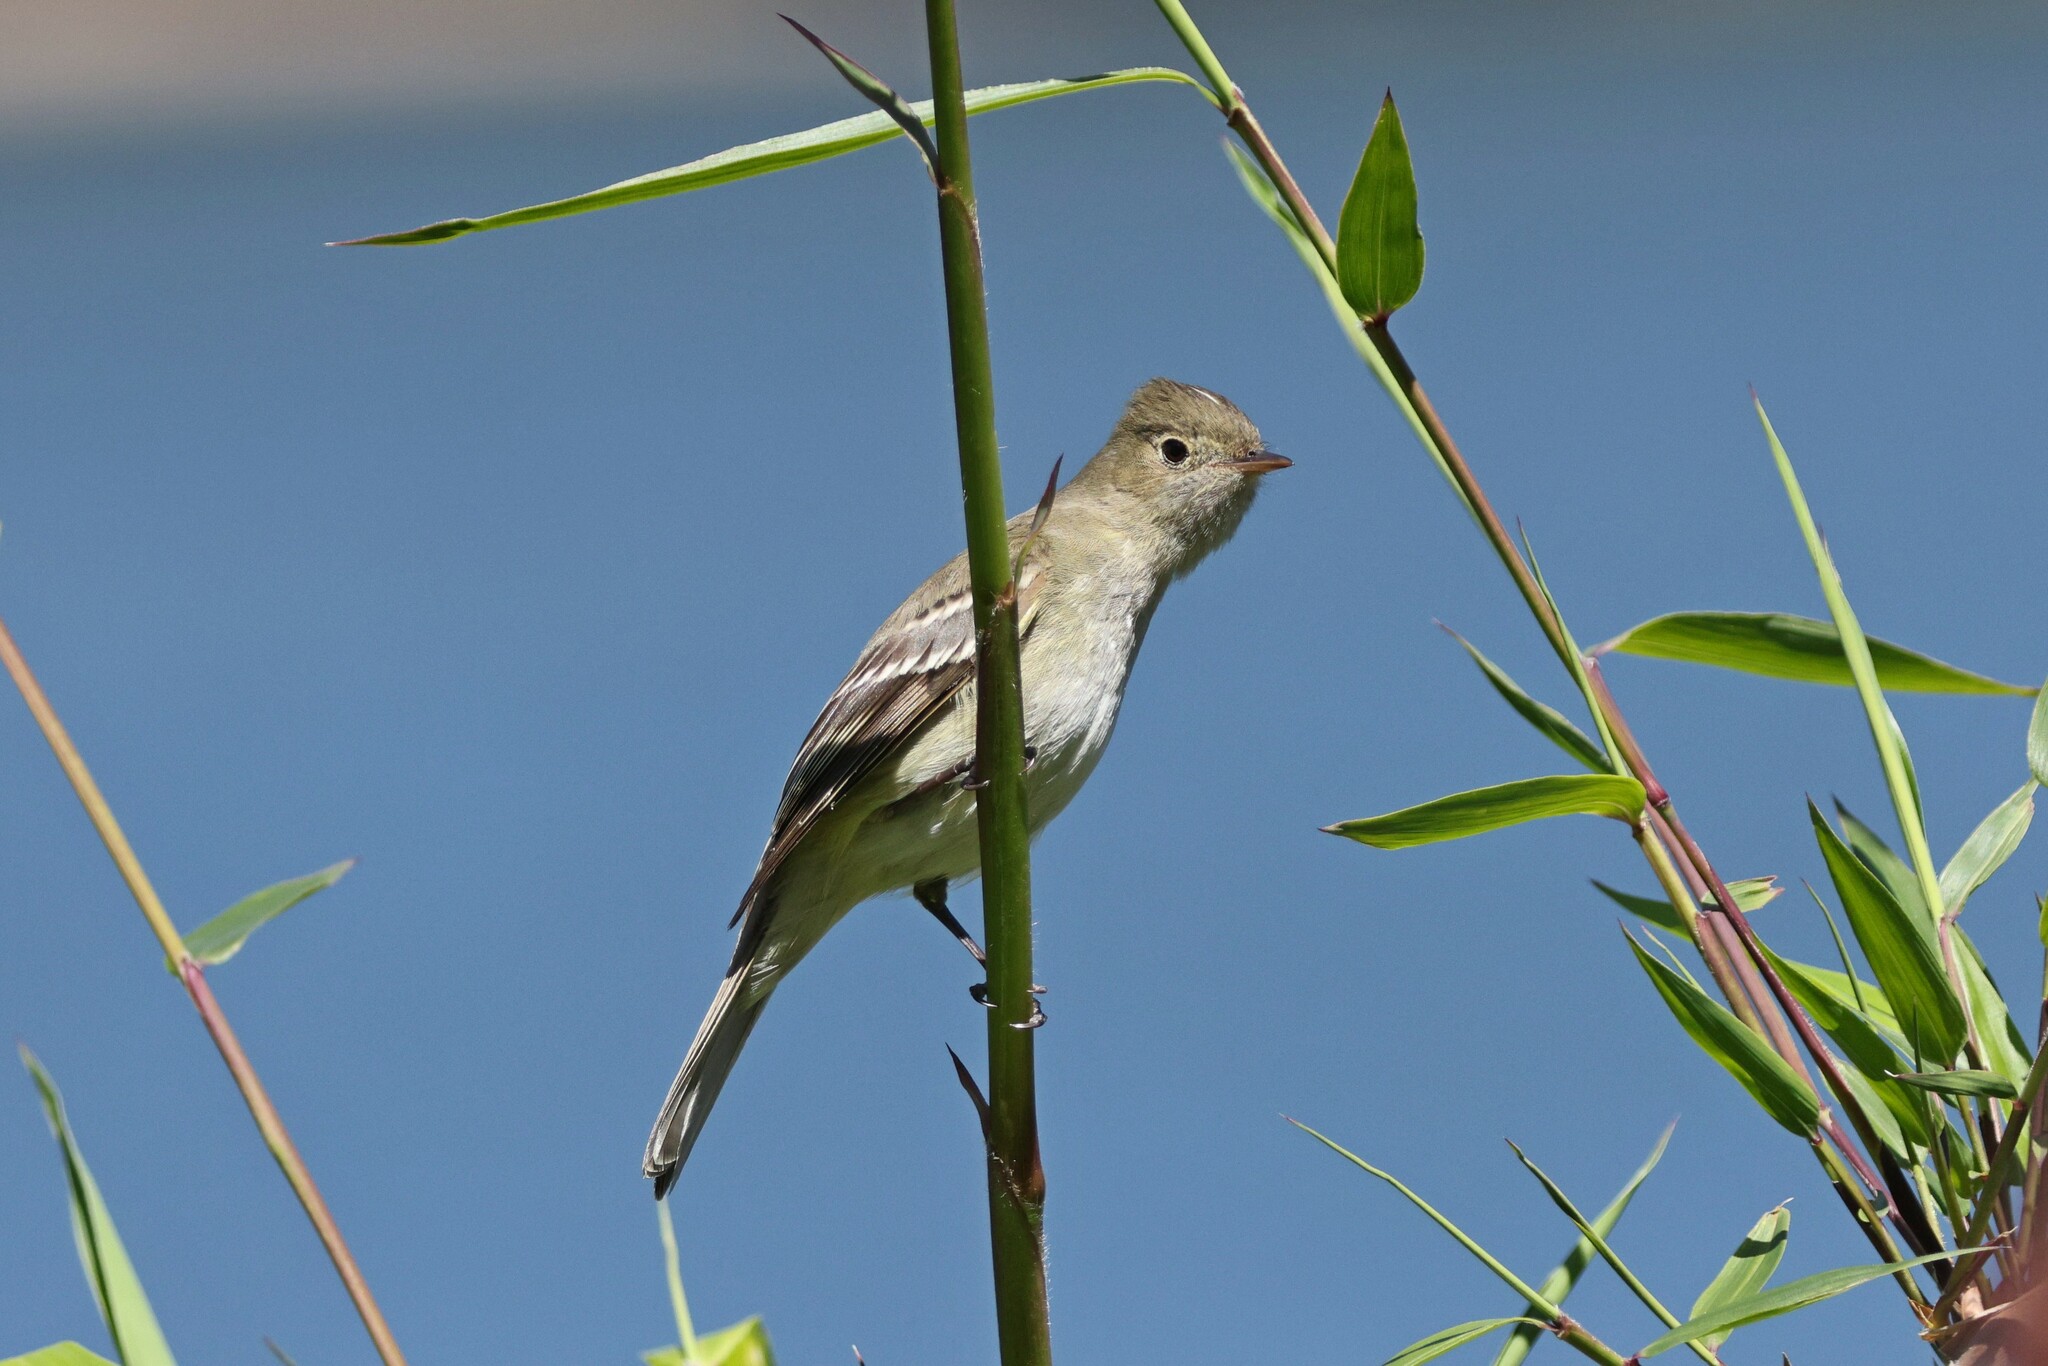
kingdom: Animalia
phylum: Chordata
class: Aves
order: Passeriformes
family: Tyrannidae
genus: Elaenia
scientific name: Elaenia albiceps
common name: White-crested elaenia
